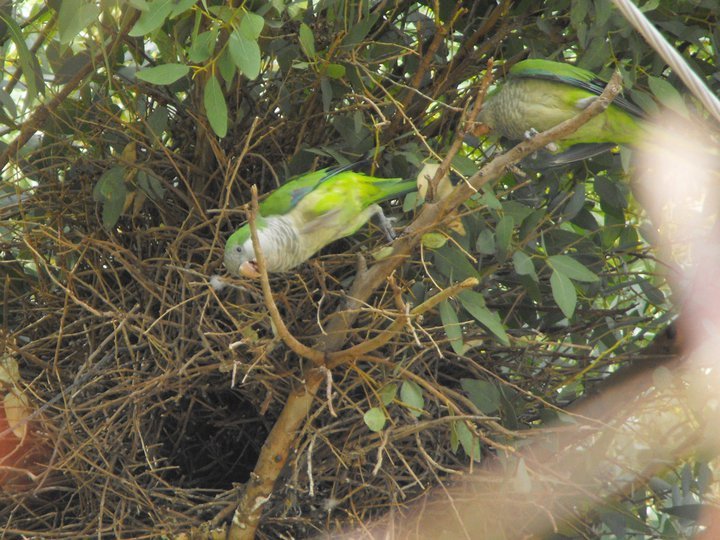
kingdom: Animalia
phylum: Chordata
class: Aves
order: Psittaciformes
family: Psittacidae
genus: Myiopsitta
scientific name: Myiopsitta monachus
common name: Monk parakeet
